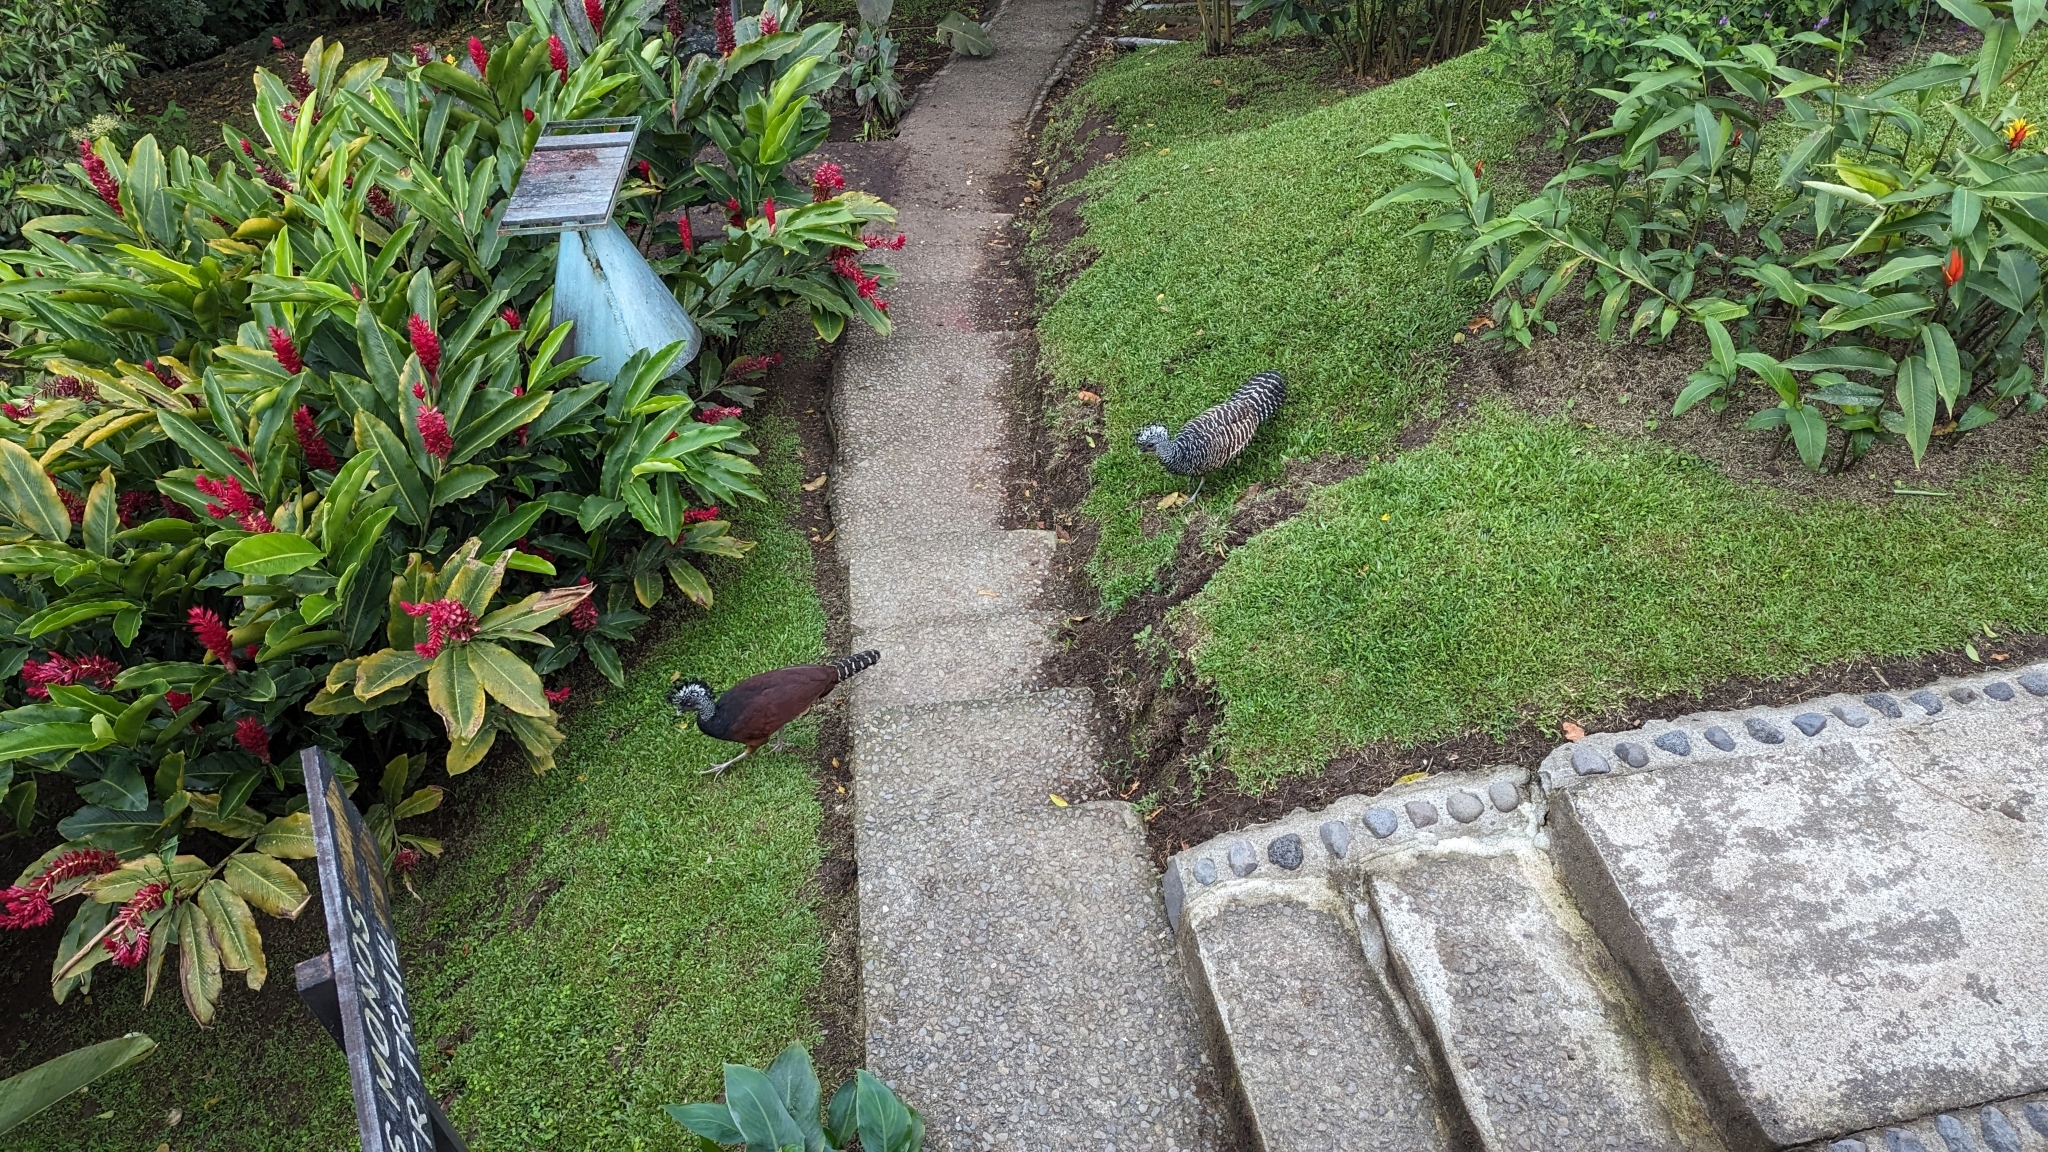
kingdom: Animalia
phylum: Chordata
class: Aves
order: Galliformes
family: Cracidae
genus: Crax
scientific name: Crax rubra
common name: Great curassow
